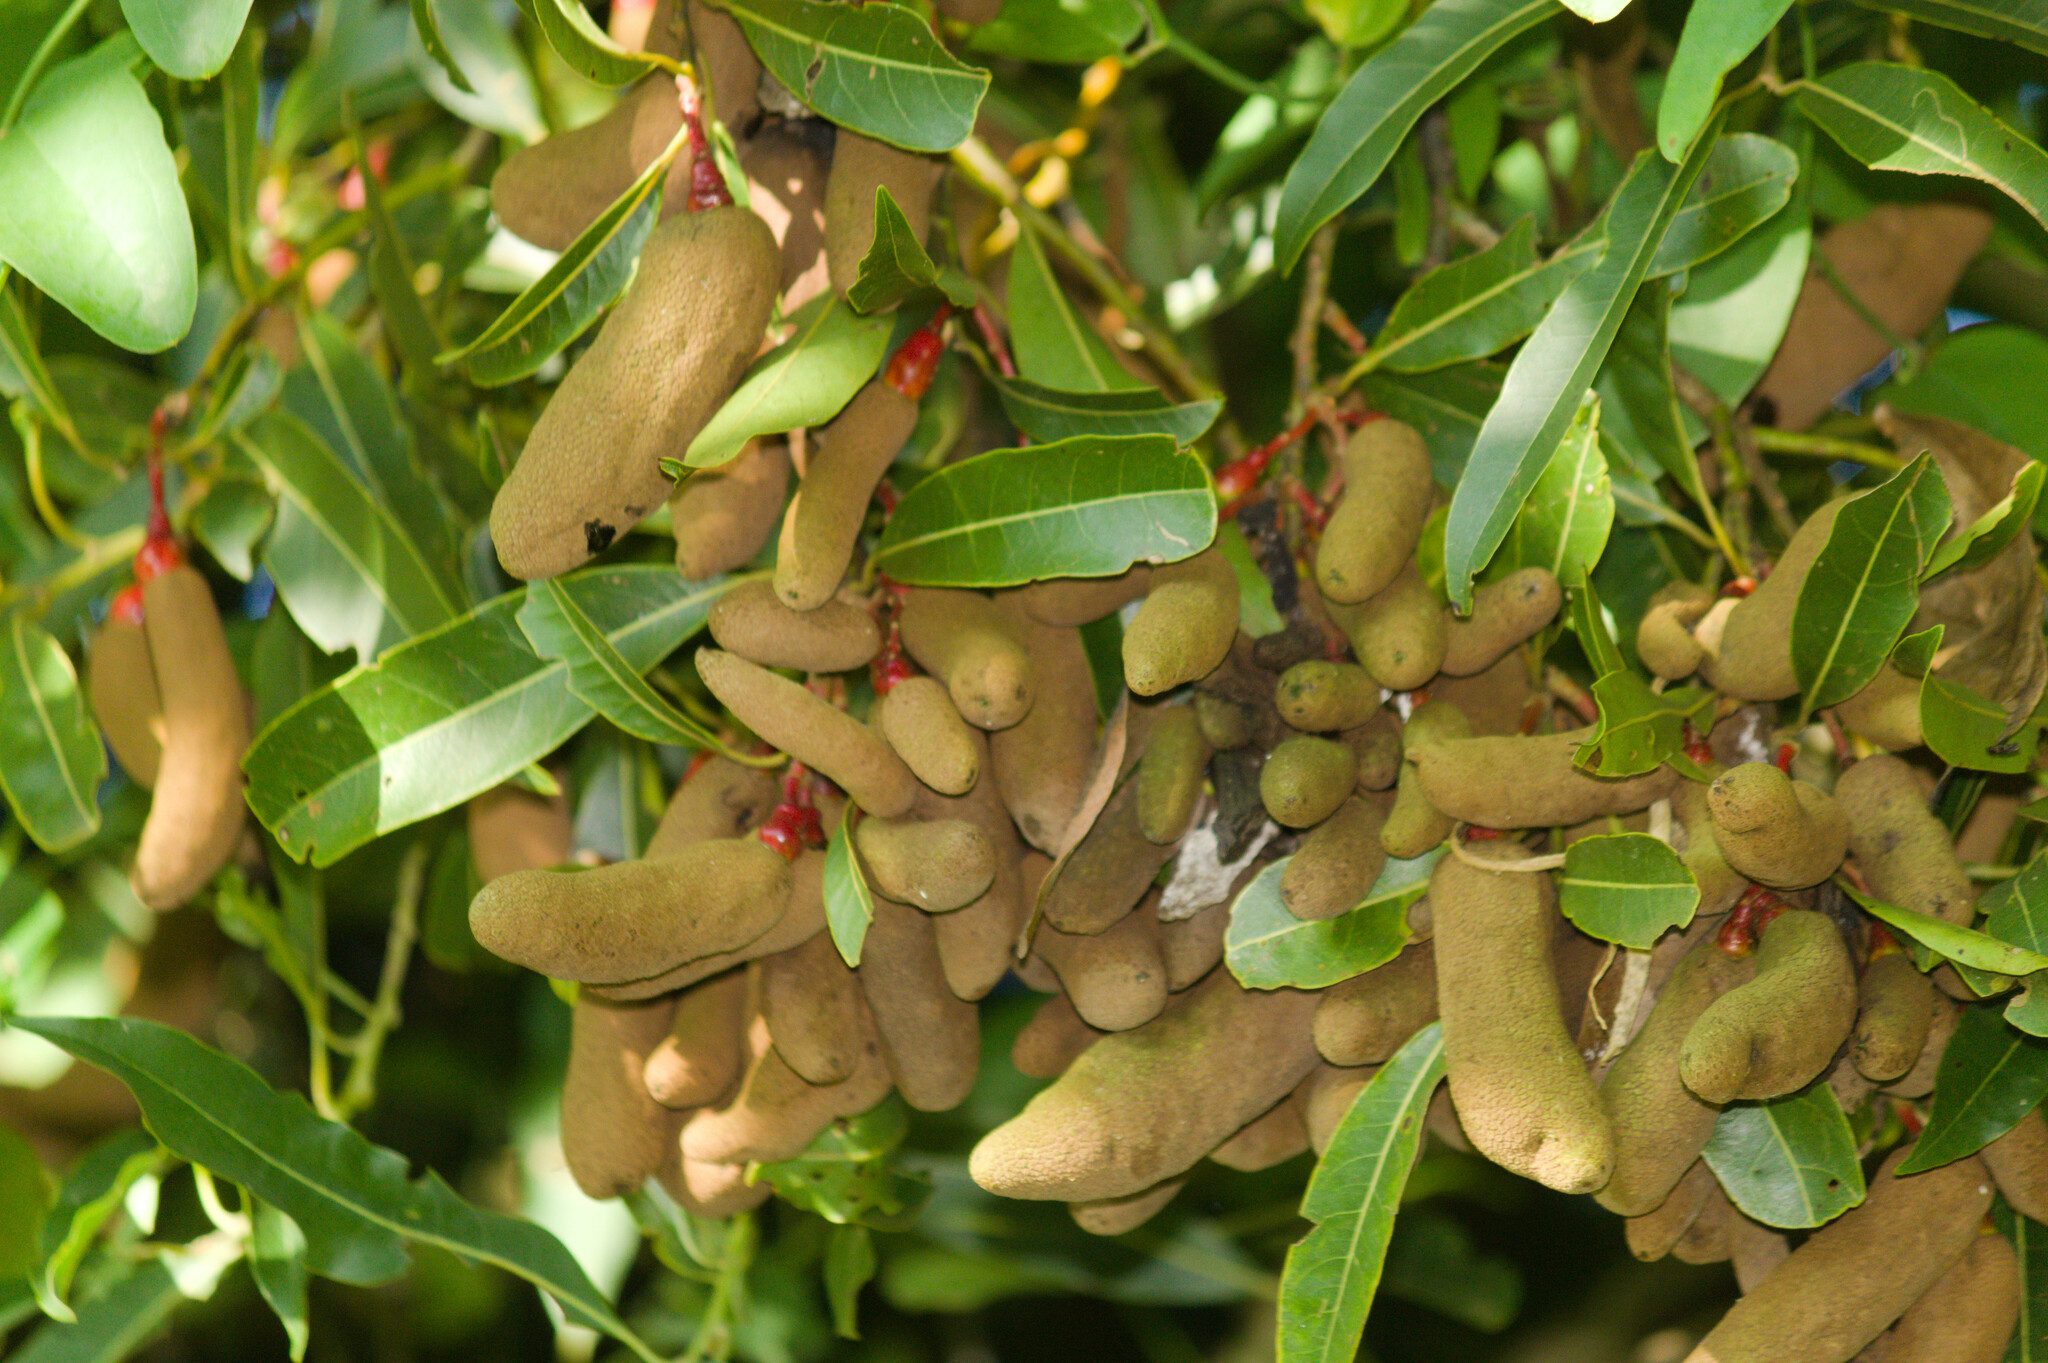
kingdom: Plantae
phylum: Tracheophyta
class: Magnoliopsida
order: Laurales
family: Lauraceae
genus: Ocotea
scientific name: Ocotea puberula
